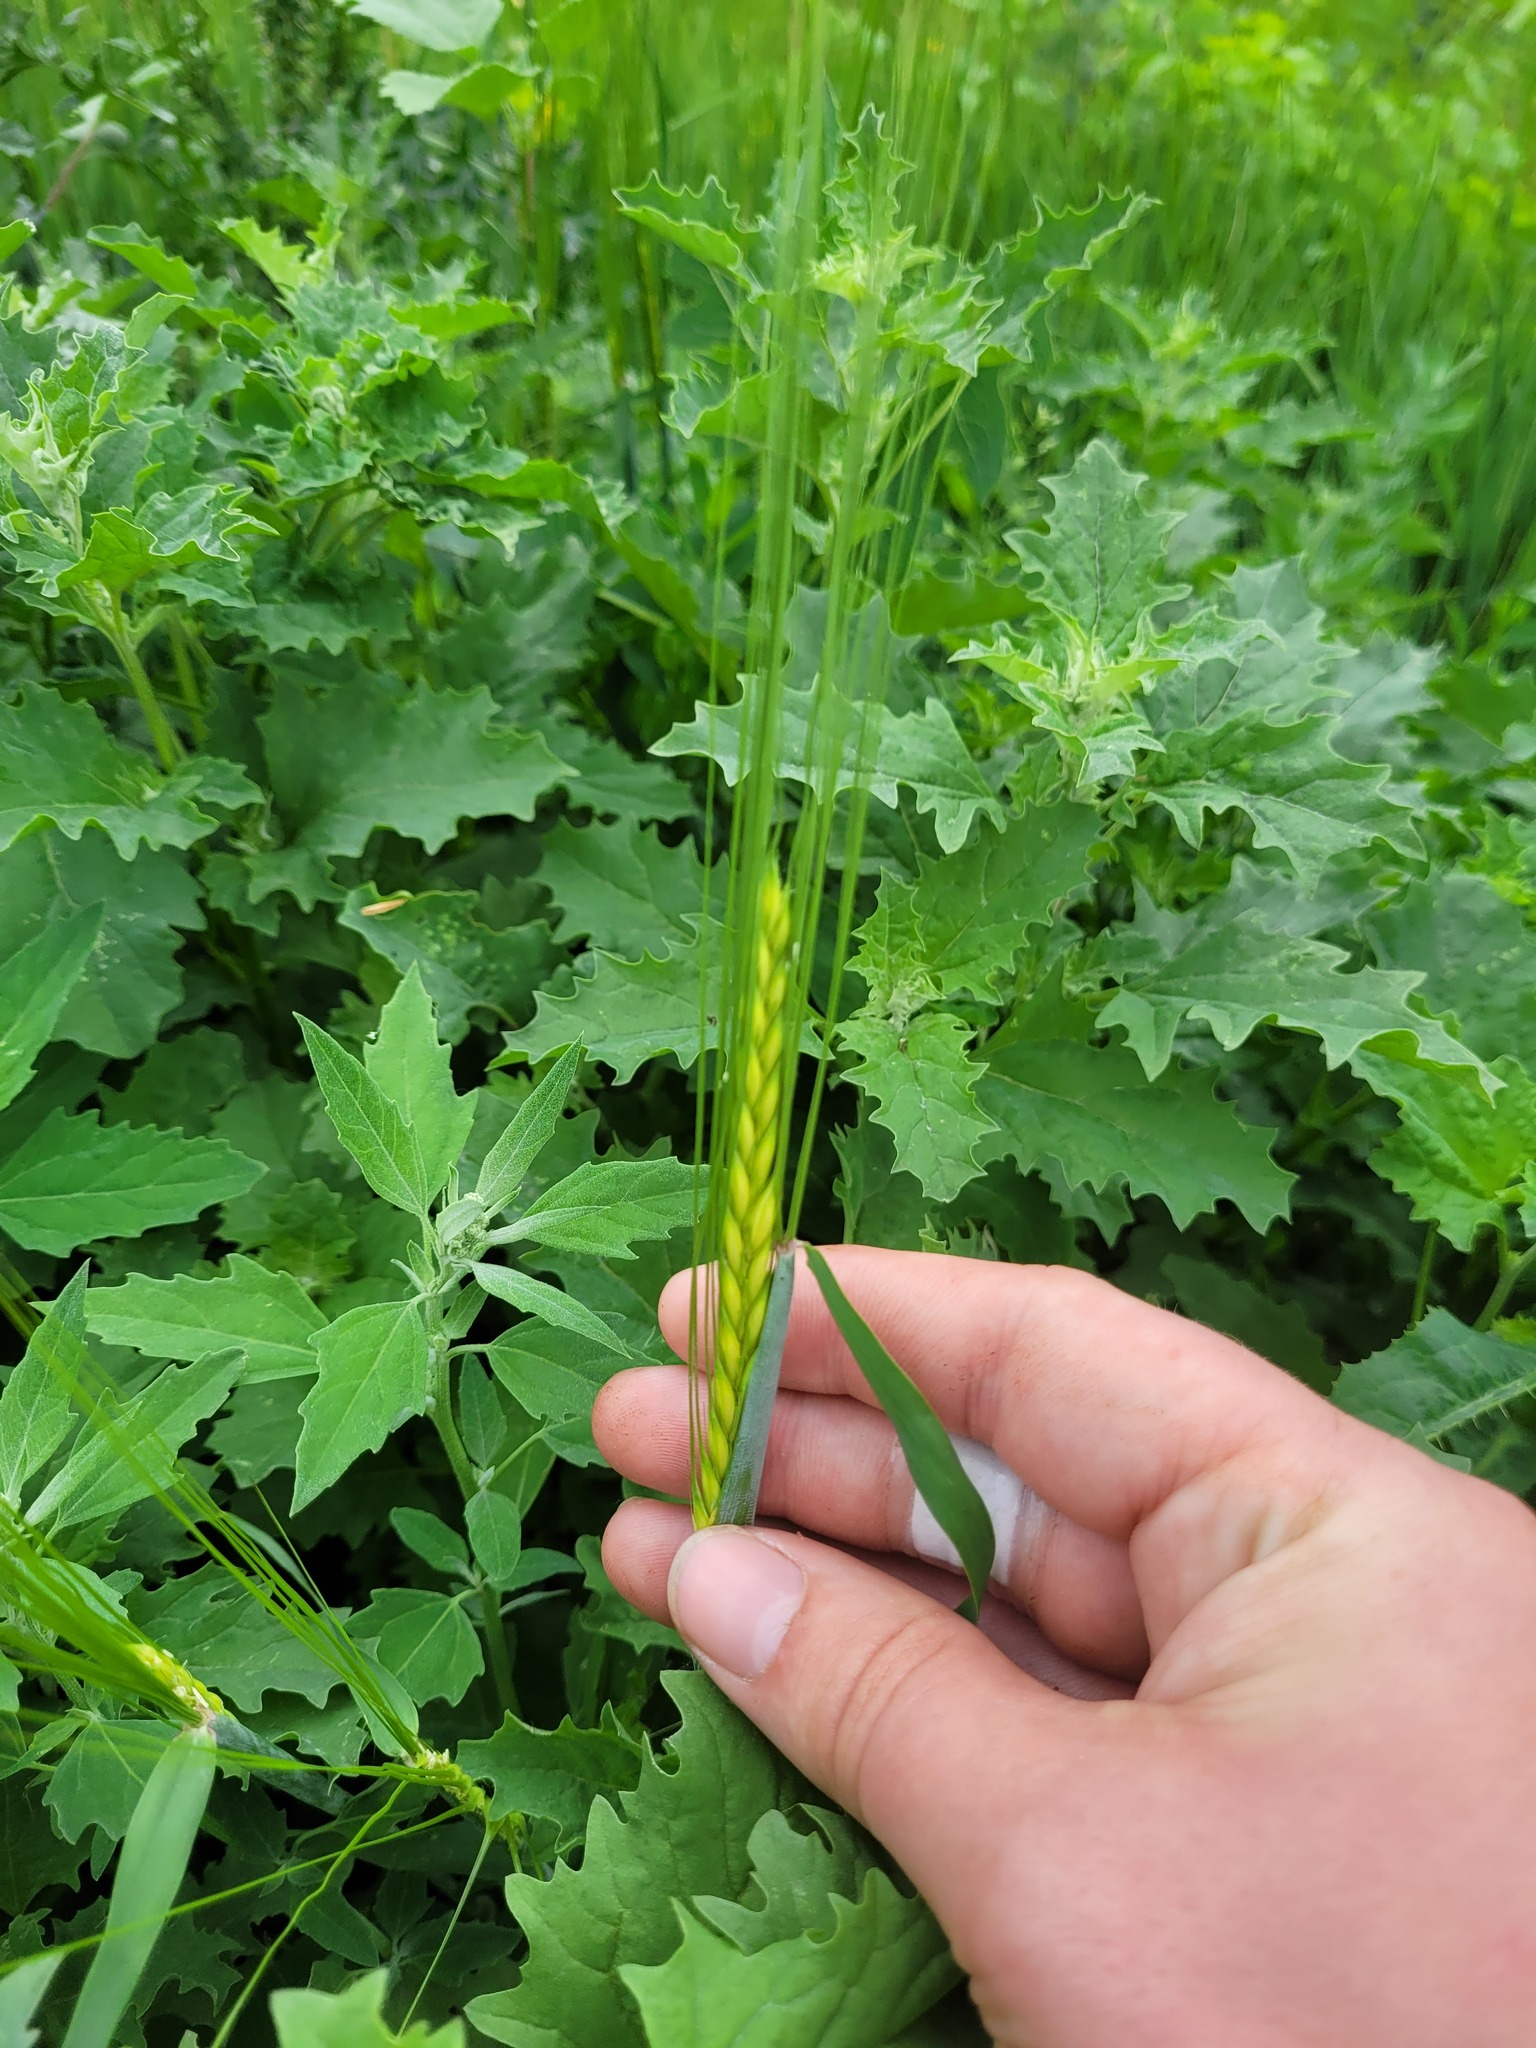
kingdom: Plantae
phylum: Tracheophyta
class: Liliopsida
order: Poales
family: Poaceae
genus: Hordeum
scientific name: Hordeum vulgare
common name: Common barley
